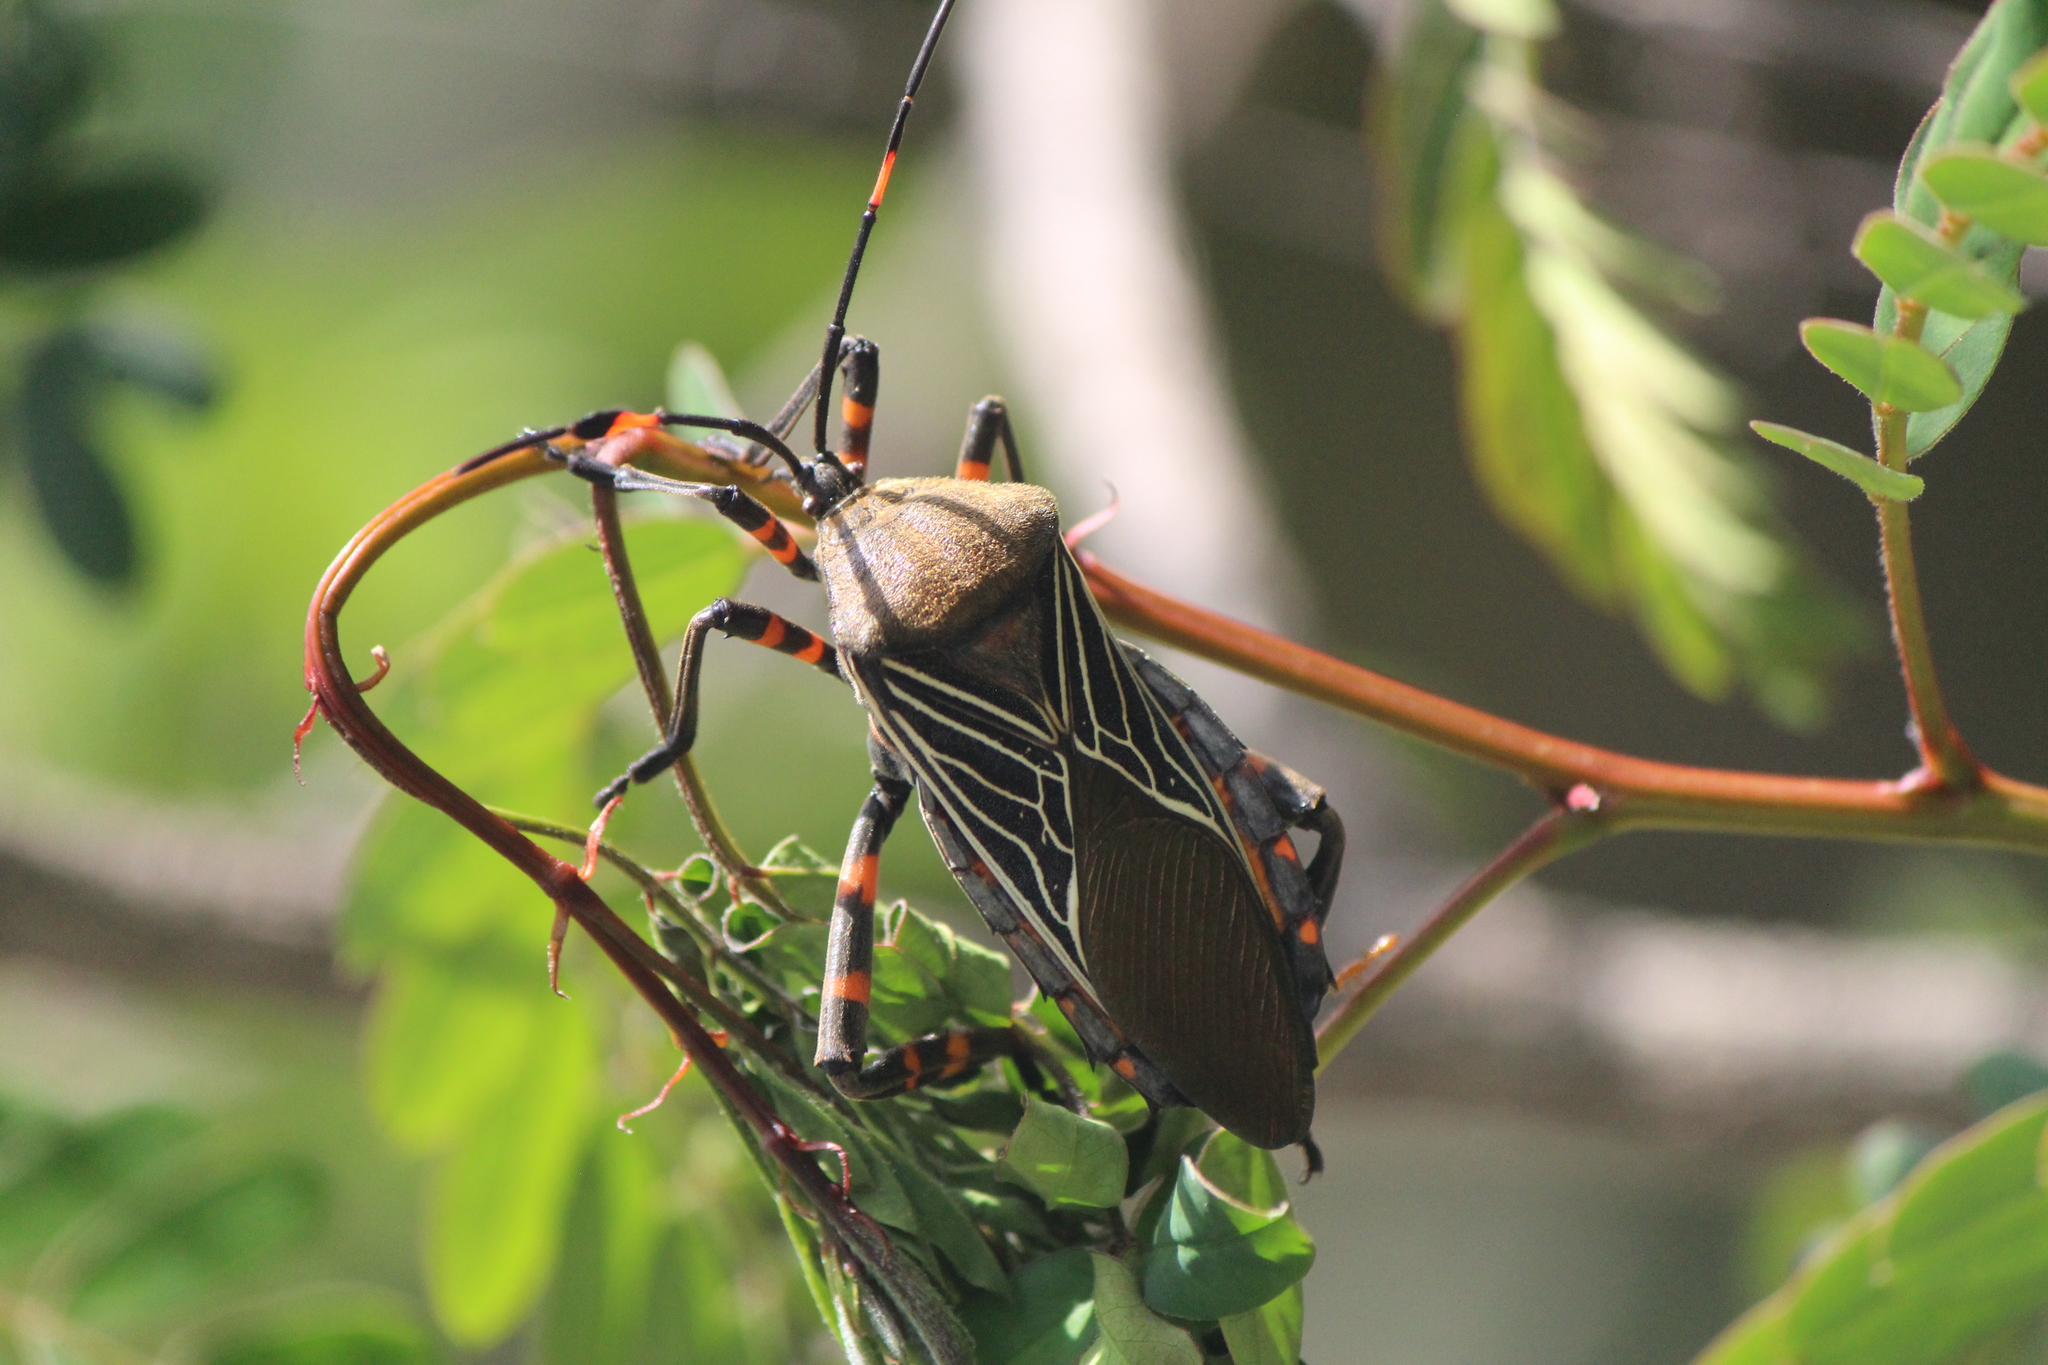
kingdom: Animalia
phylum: Arthropoda
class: Insecta
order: Hemiptera
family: Coreidae
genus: Thasus
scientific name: Thasus
